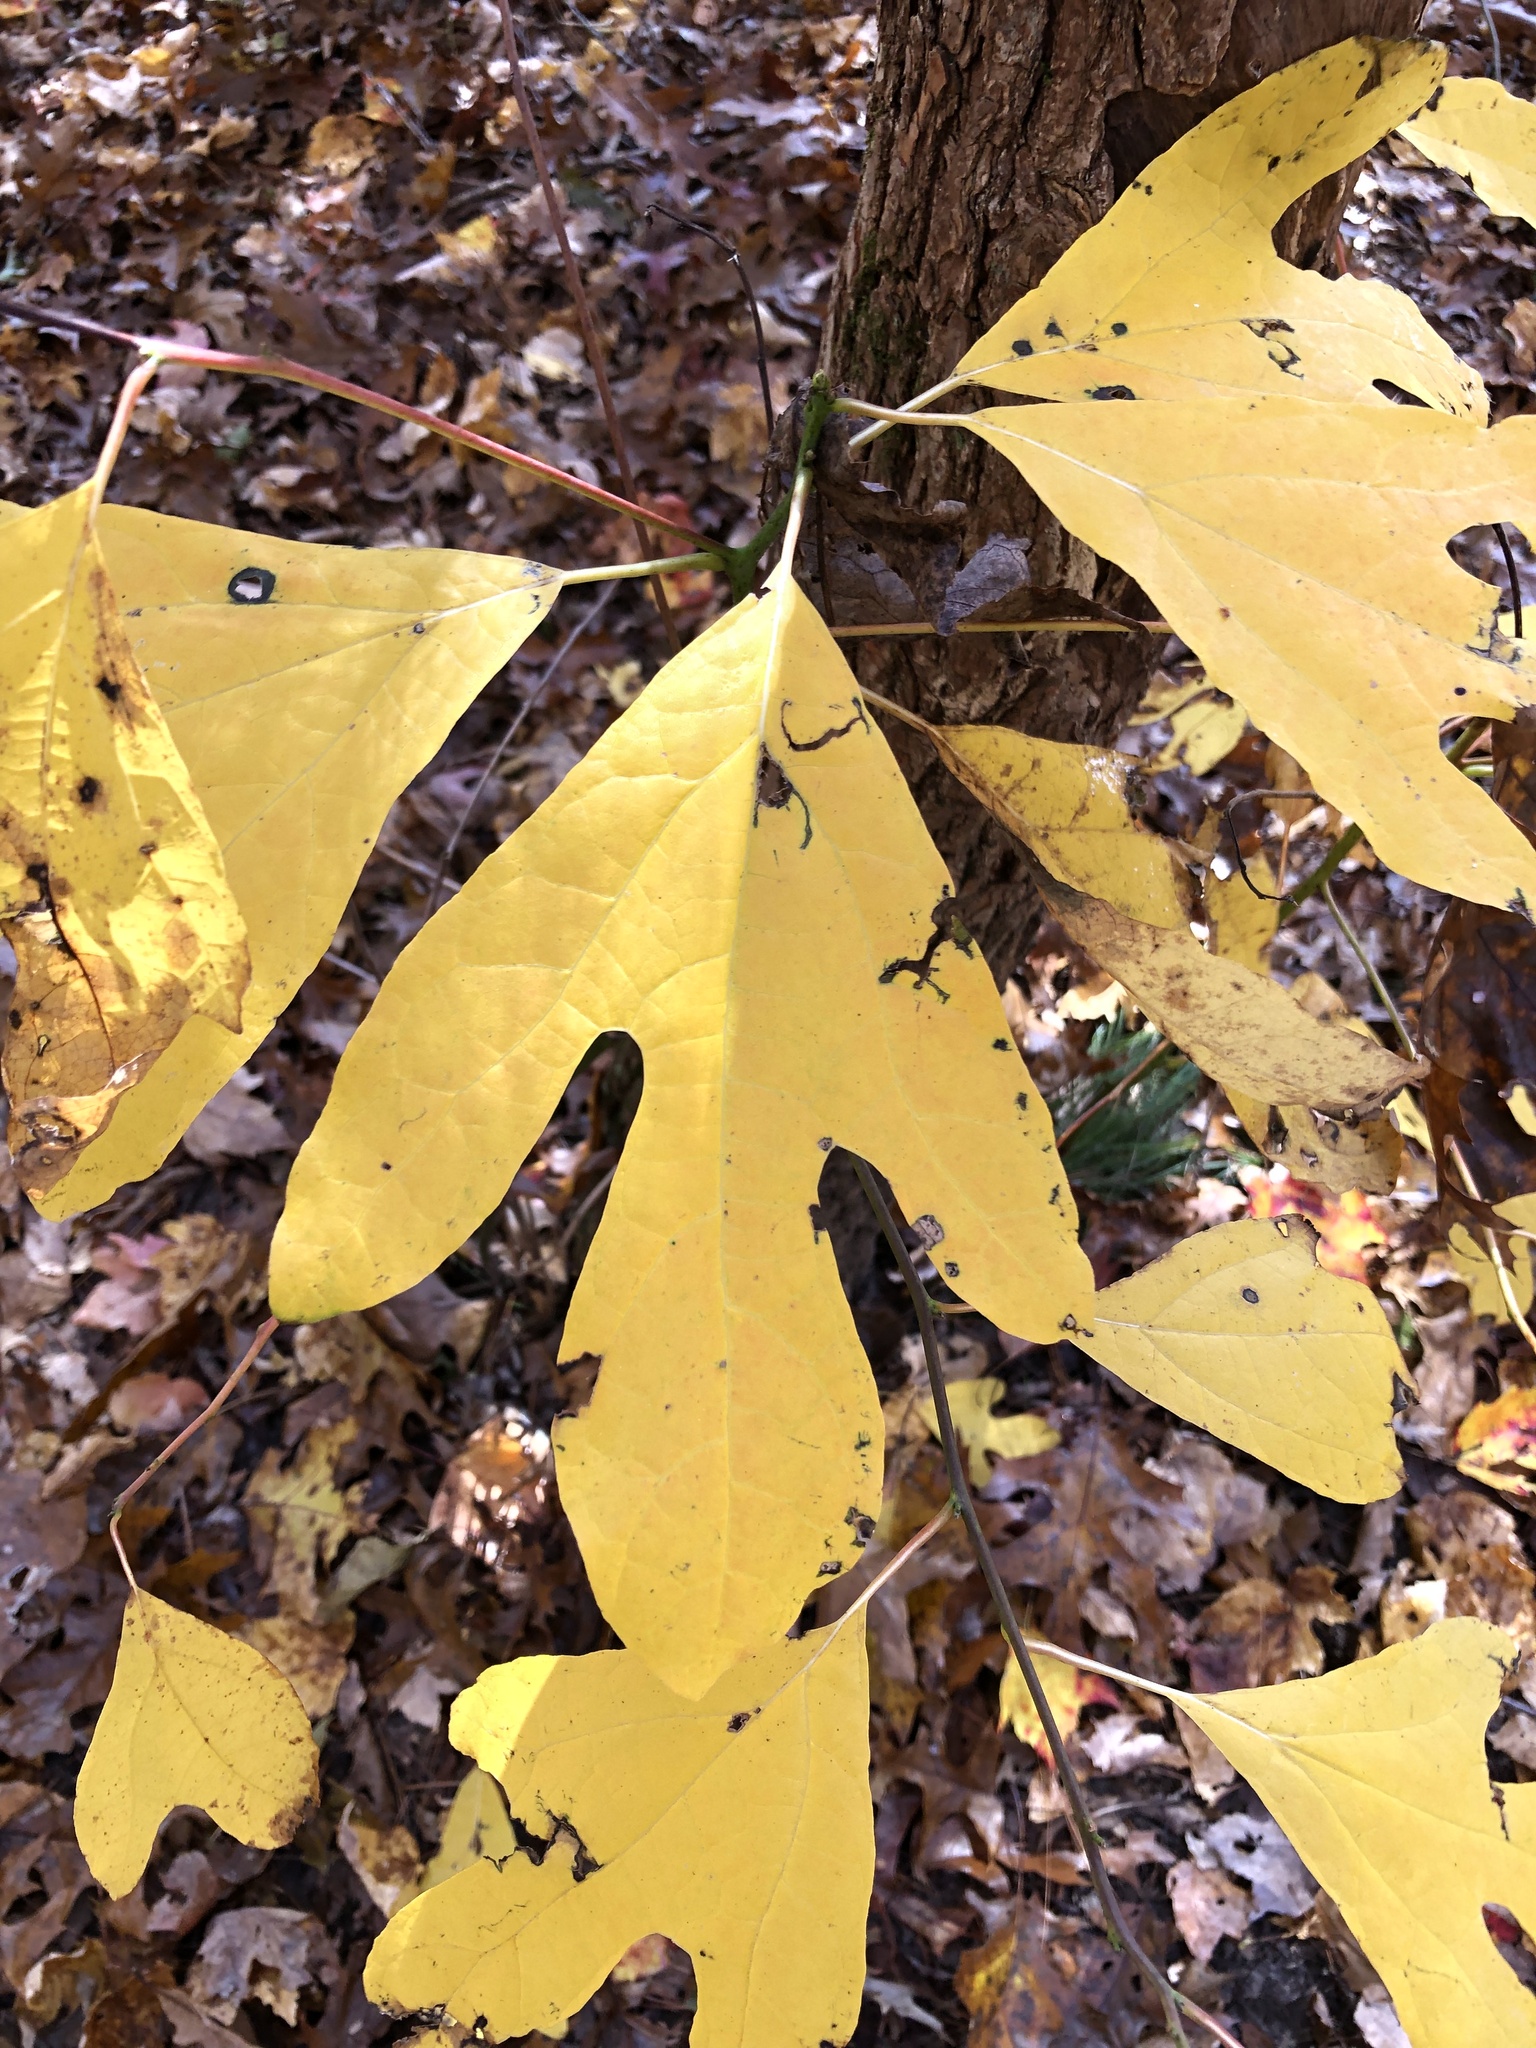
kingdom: Plantae
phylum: Tracheophyta
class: Magnoliopsida
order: Laurales
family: Lauraceae
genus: Sassafras
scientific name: Sassafras albidum
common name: Sassafras
